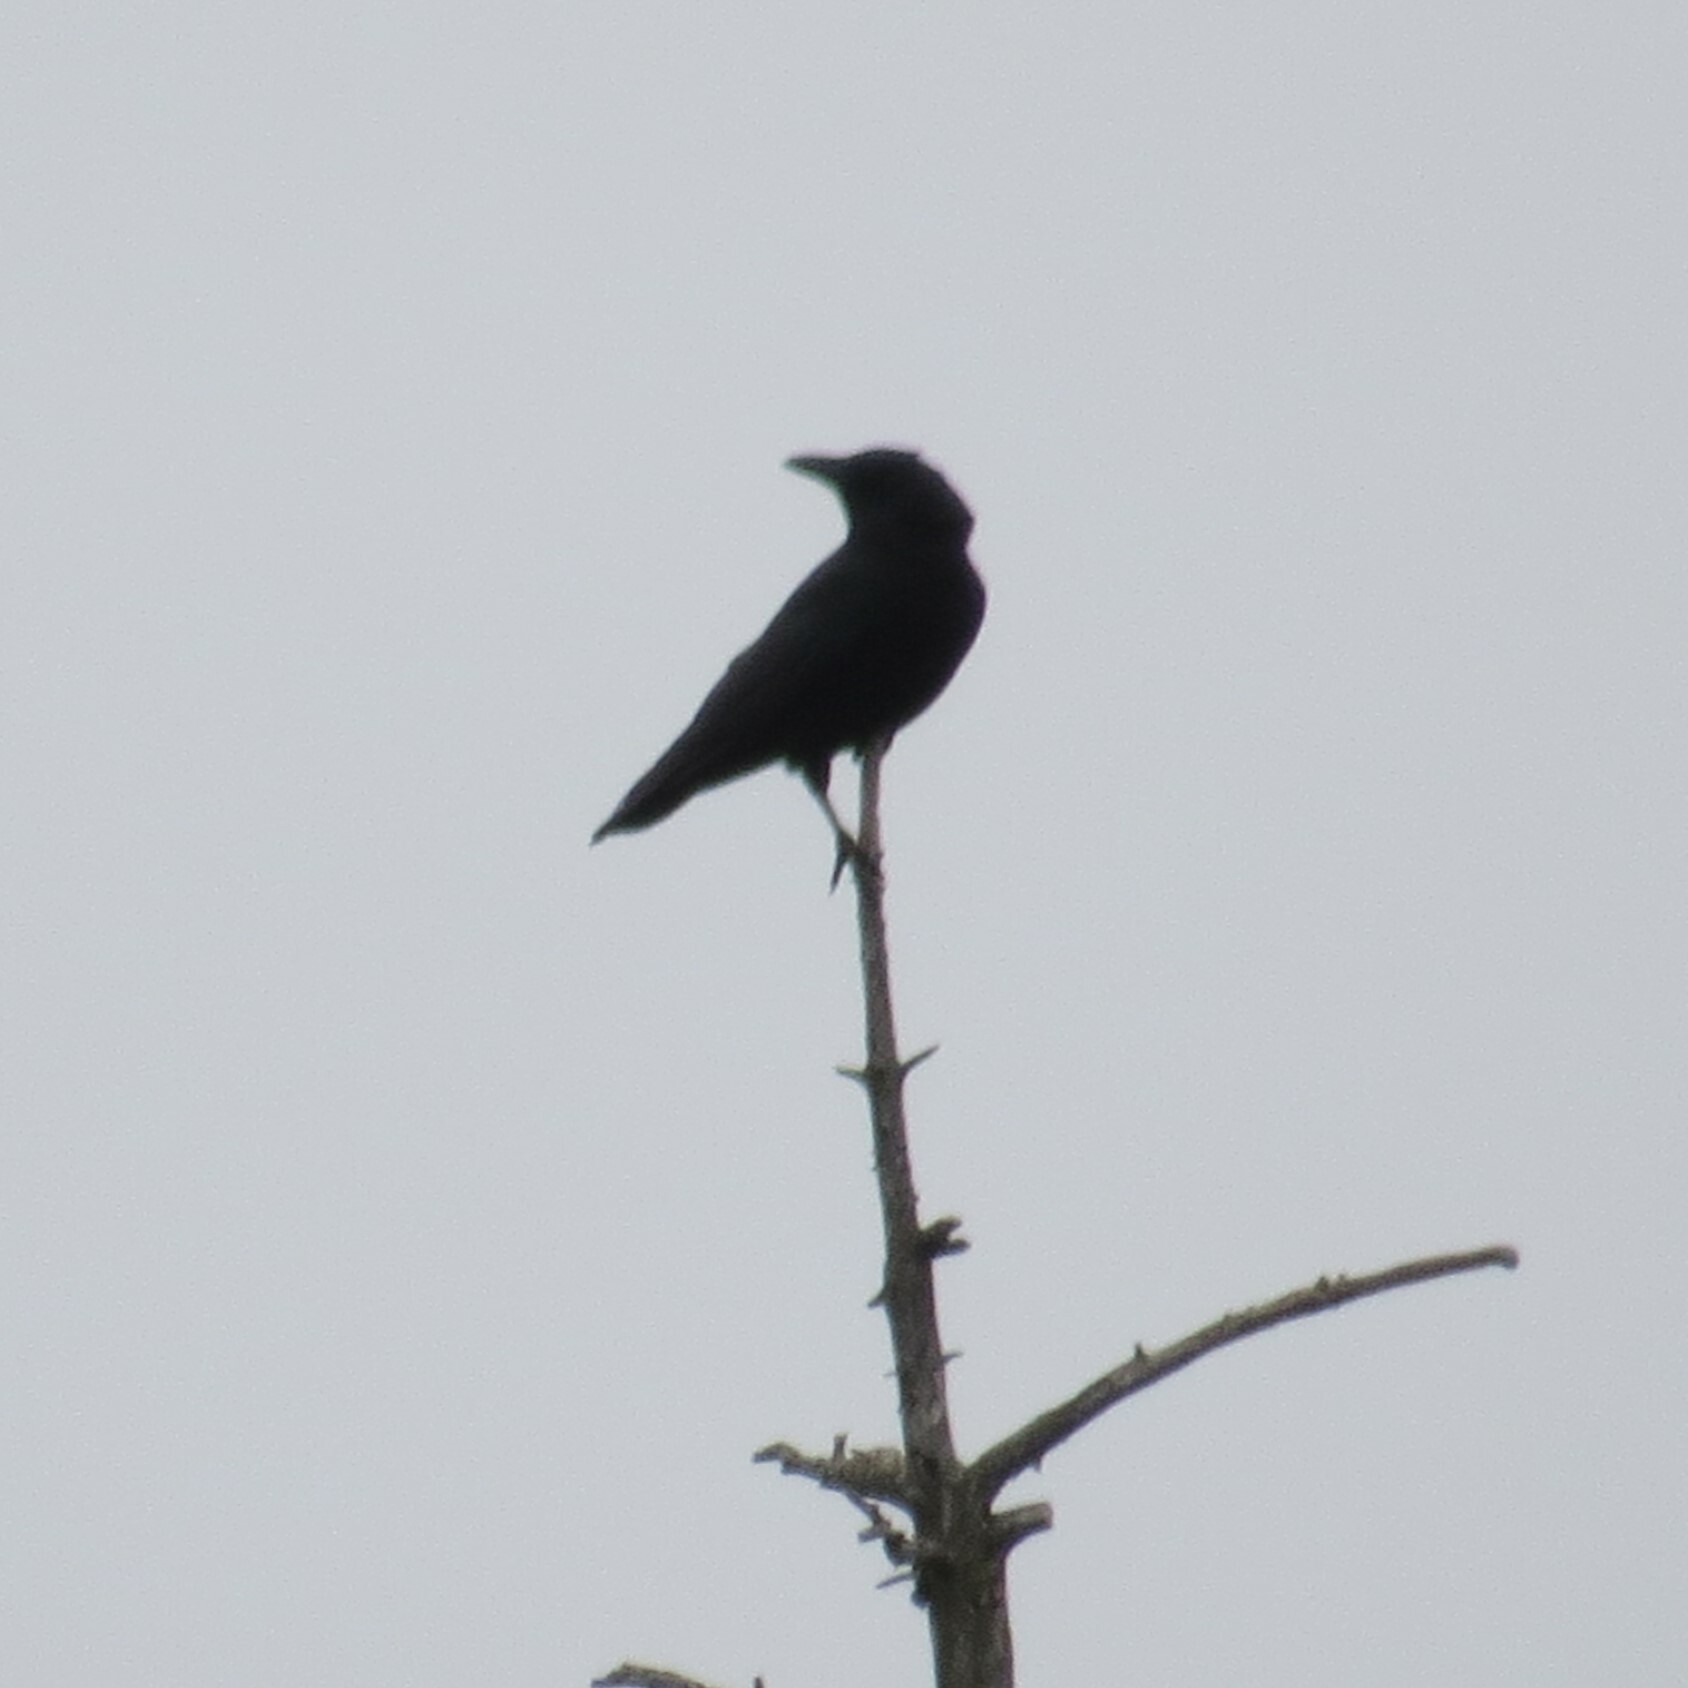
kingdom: Animalia
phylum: Chordata
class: Aves
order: Passeriformes
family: Corvidae
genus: Corvus
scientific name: Corvus brachyrhynchos
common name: American crow
